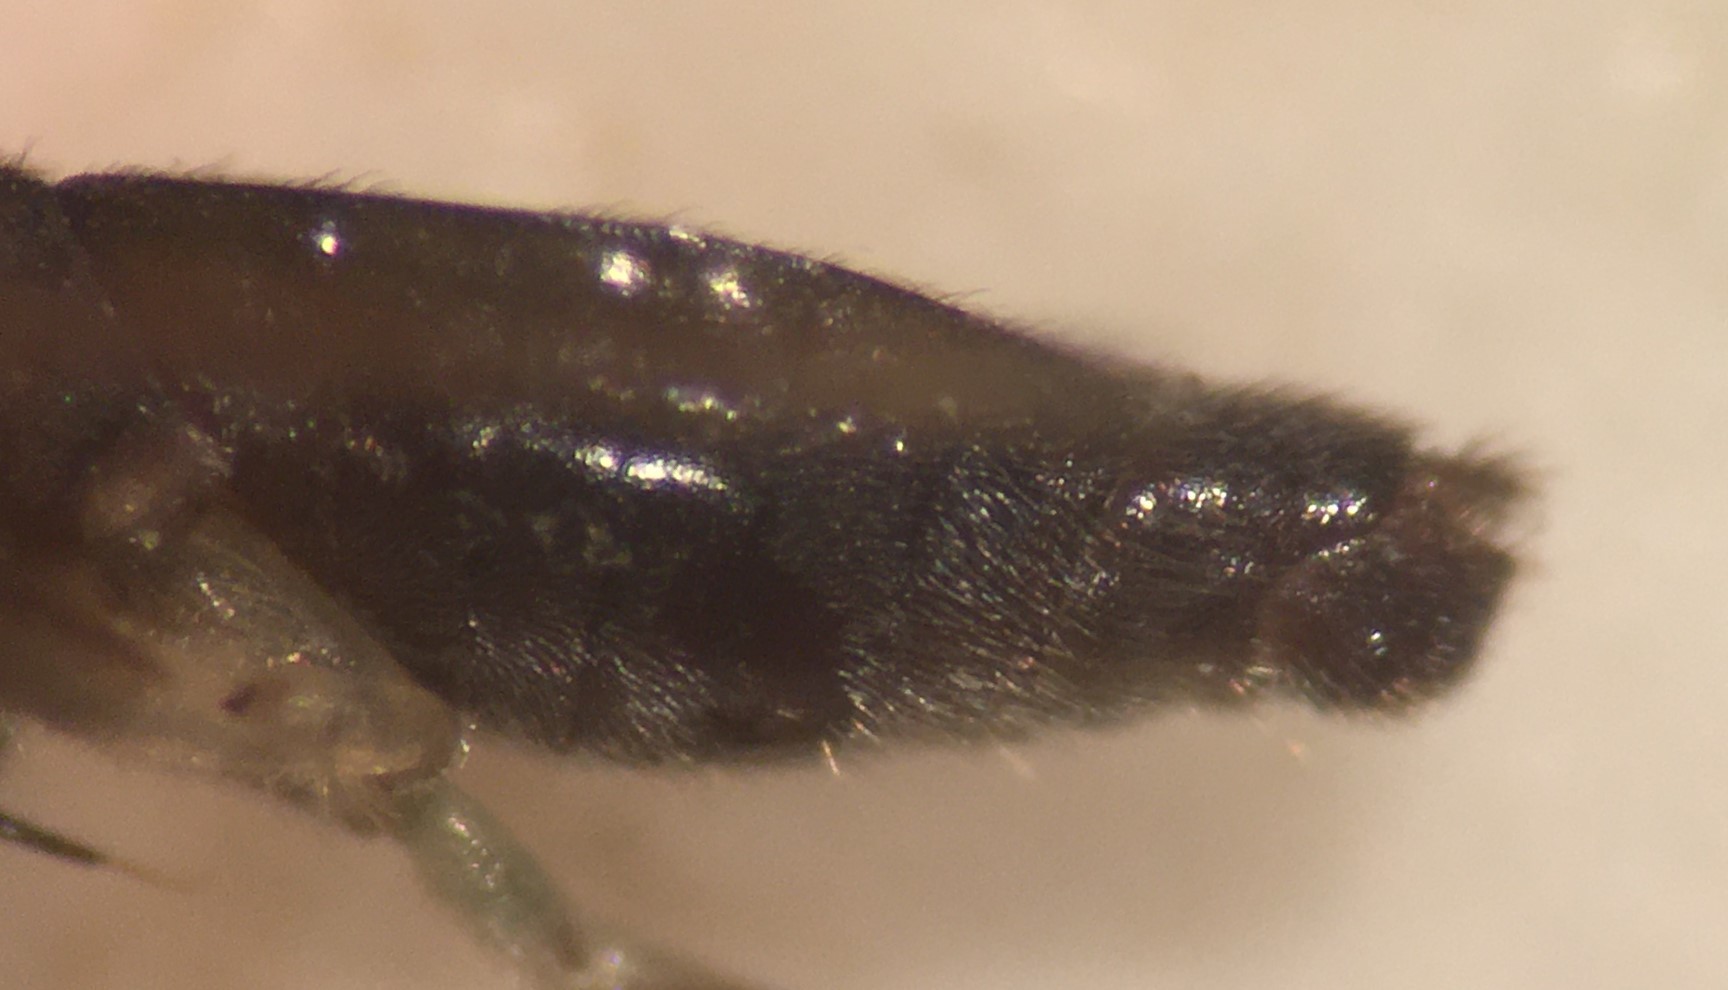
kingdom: Animalia
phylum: Arthropoda
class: Insecta
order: Hemiptera
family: Mesoveliidae
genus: Mesovelia
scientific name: Mesovelia polhemusi
